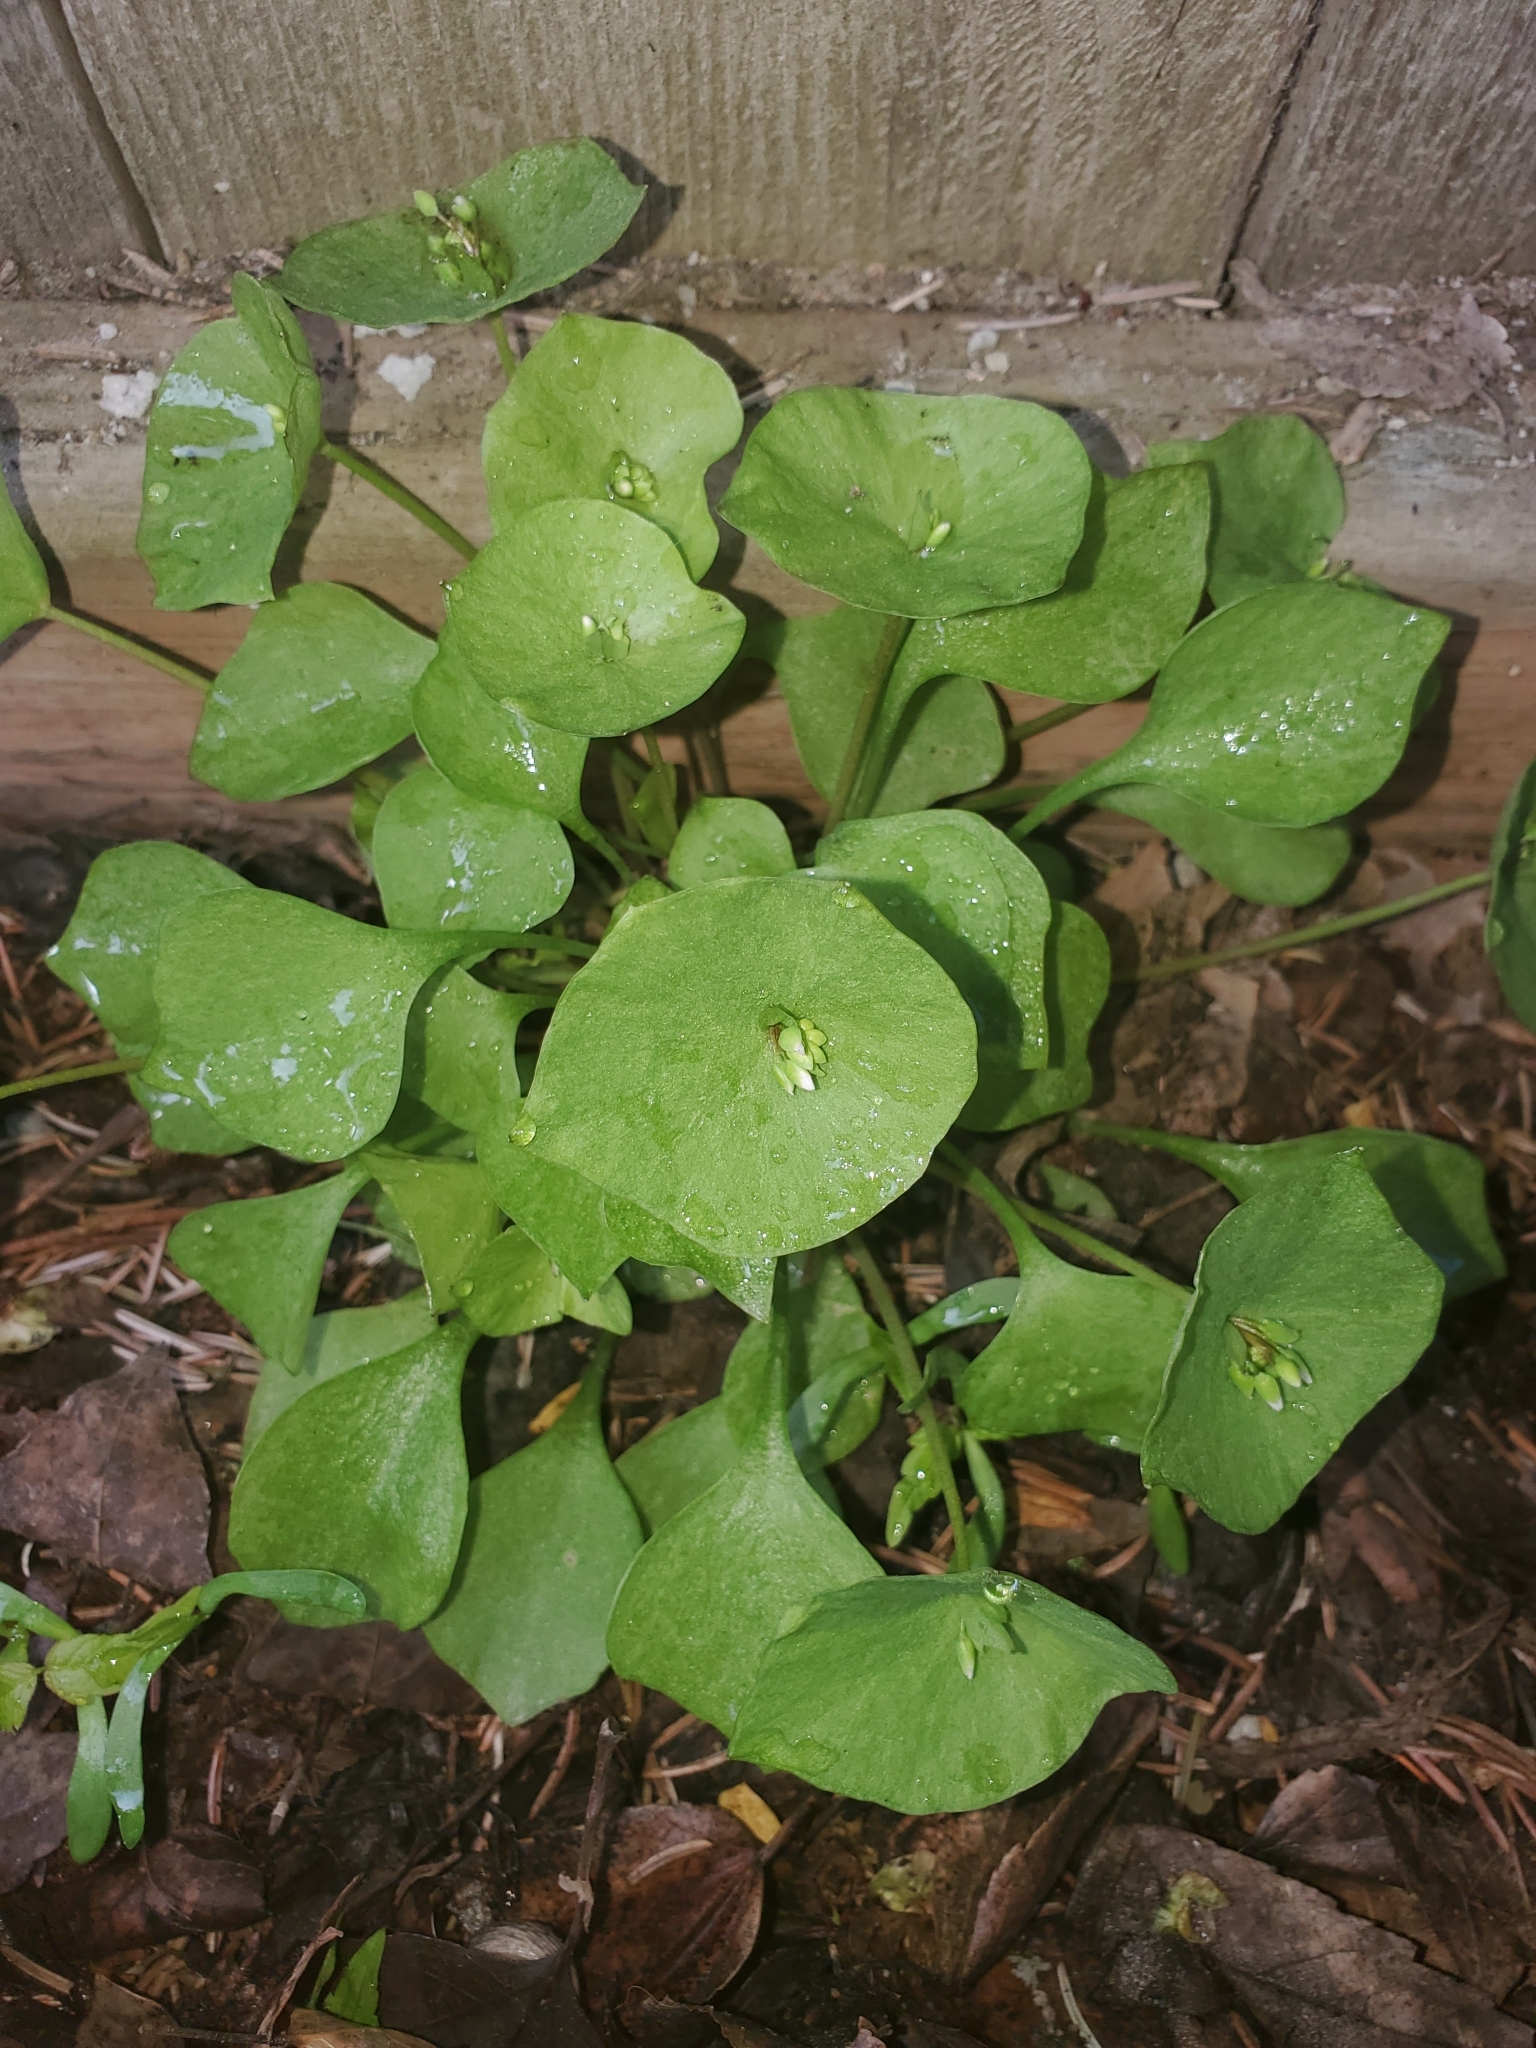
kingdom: Plantae
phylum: Tracheophyta
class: Magnoliopsida
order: Caryophyllales
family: Montiaceae
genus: Claytonia
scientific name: Claytonia perfoliata
